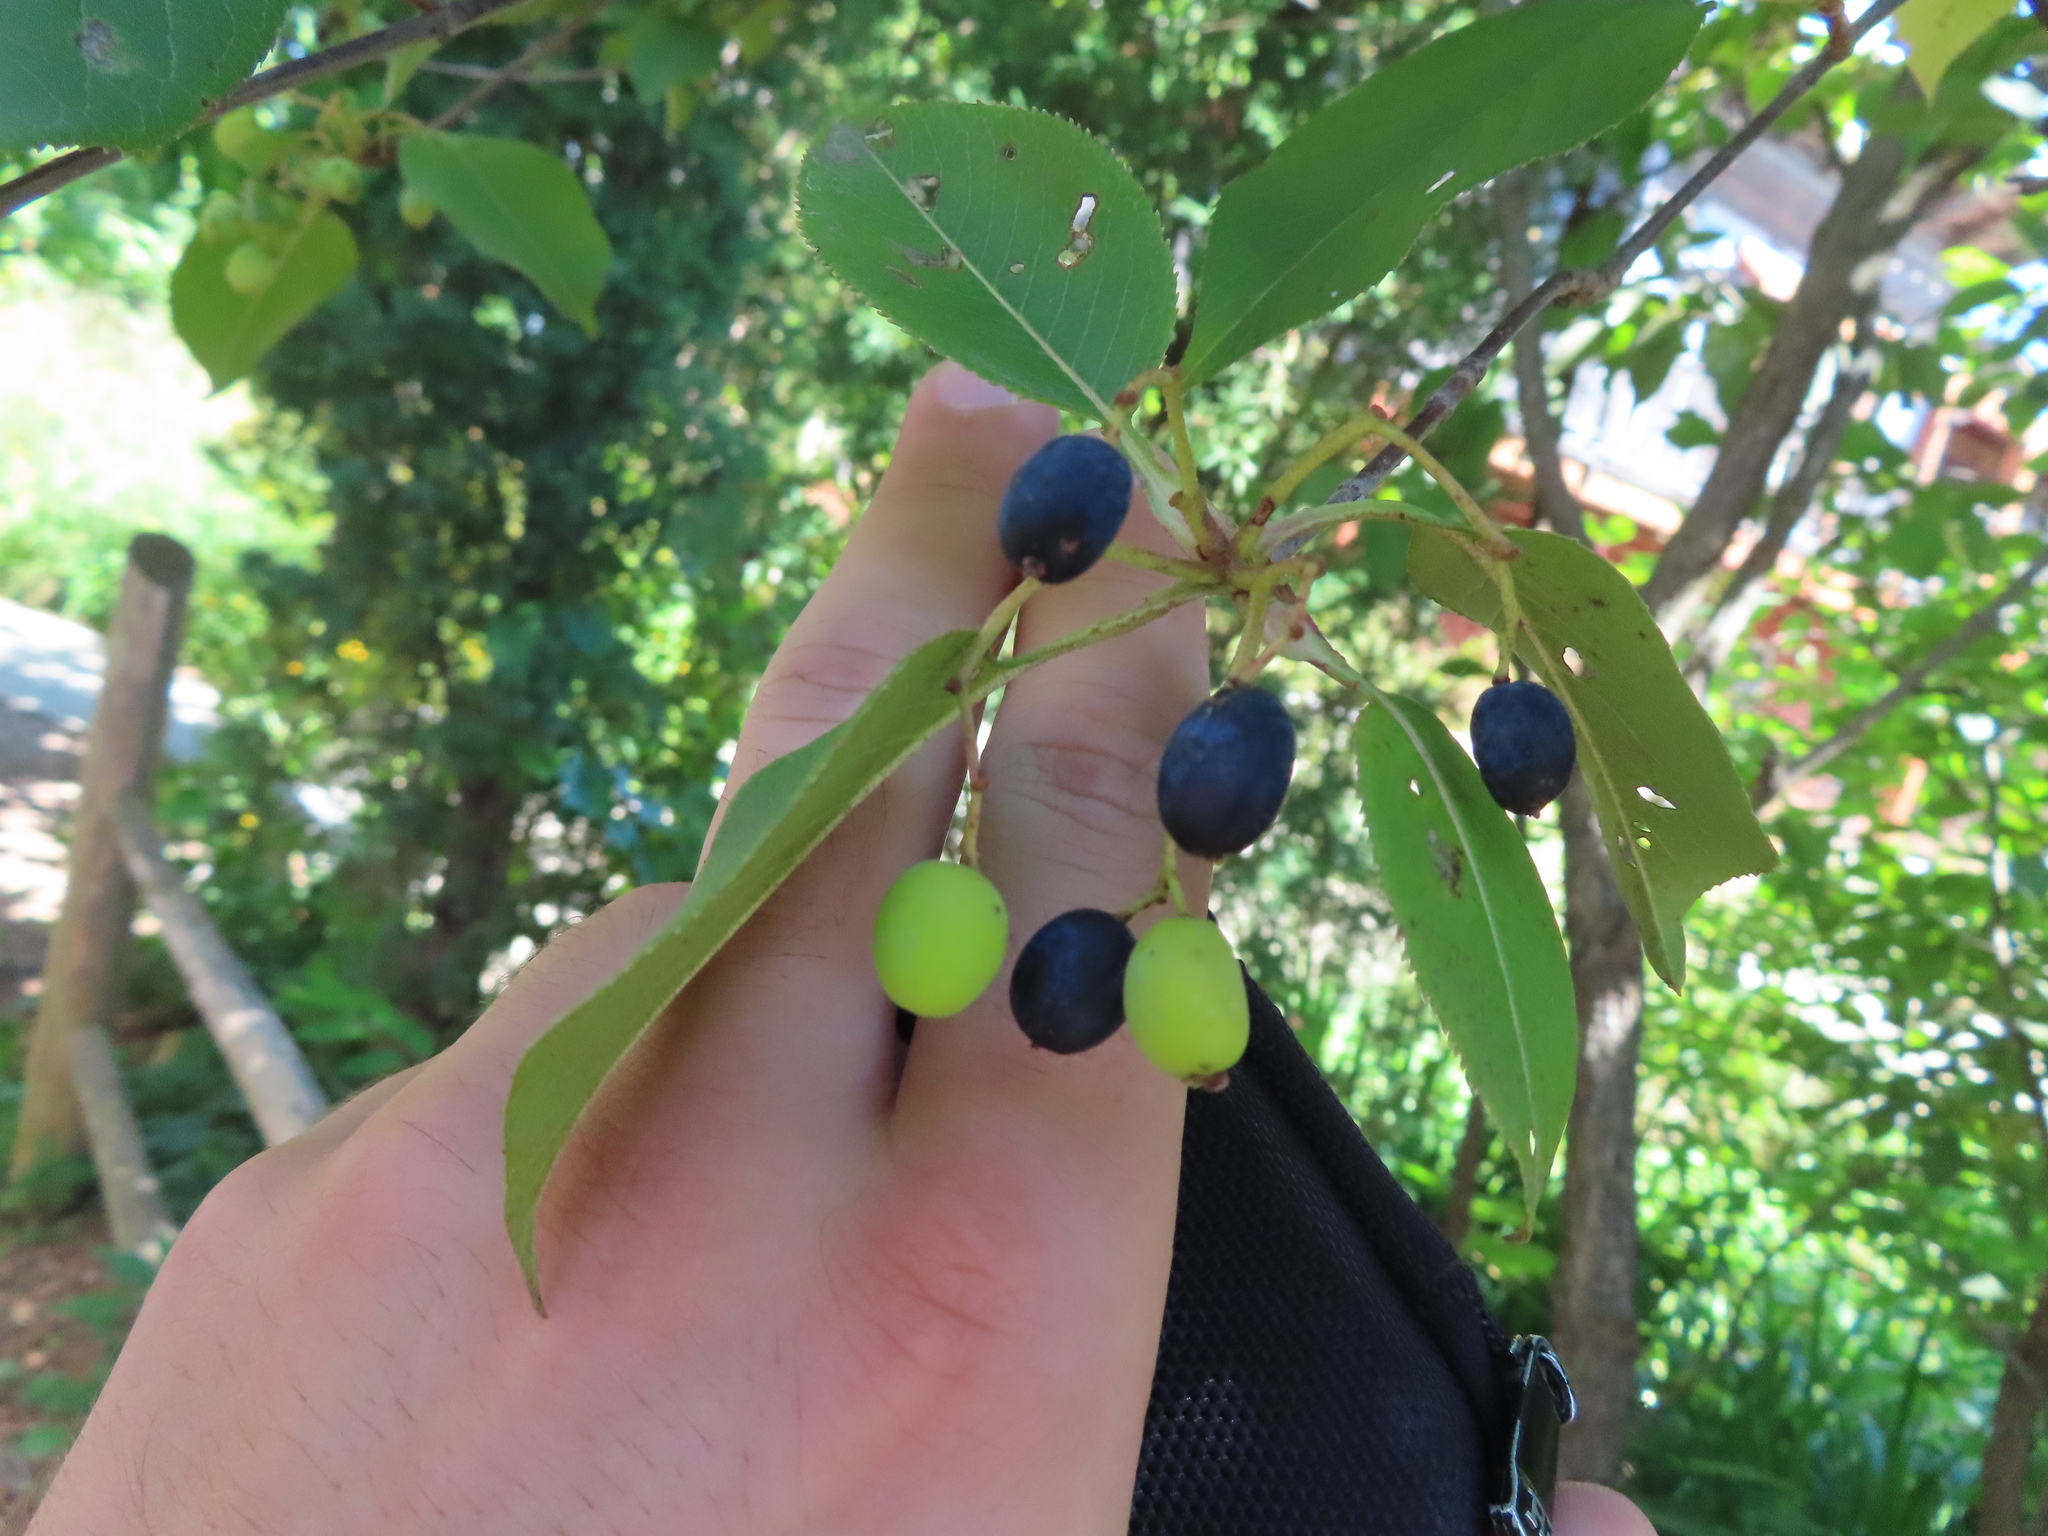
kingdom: Plantae
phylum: Tracheophyta
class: Magnoliopsida
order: Dipsacales
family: Viburnaceae
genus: Viburnum
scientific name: Viburnum lentago
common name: Black haw
